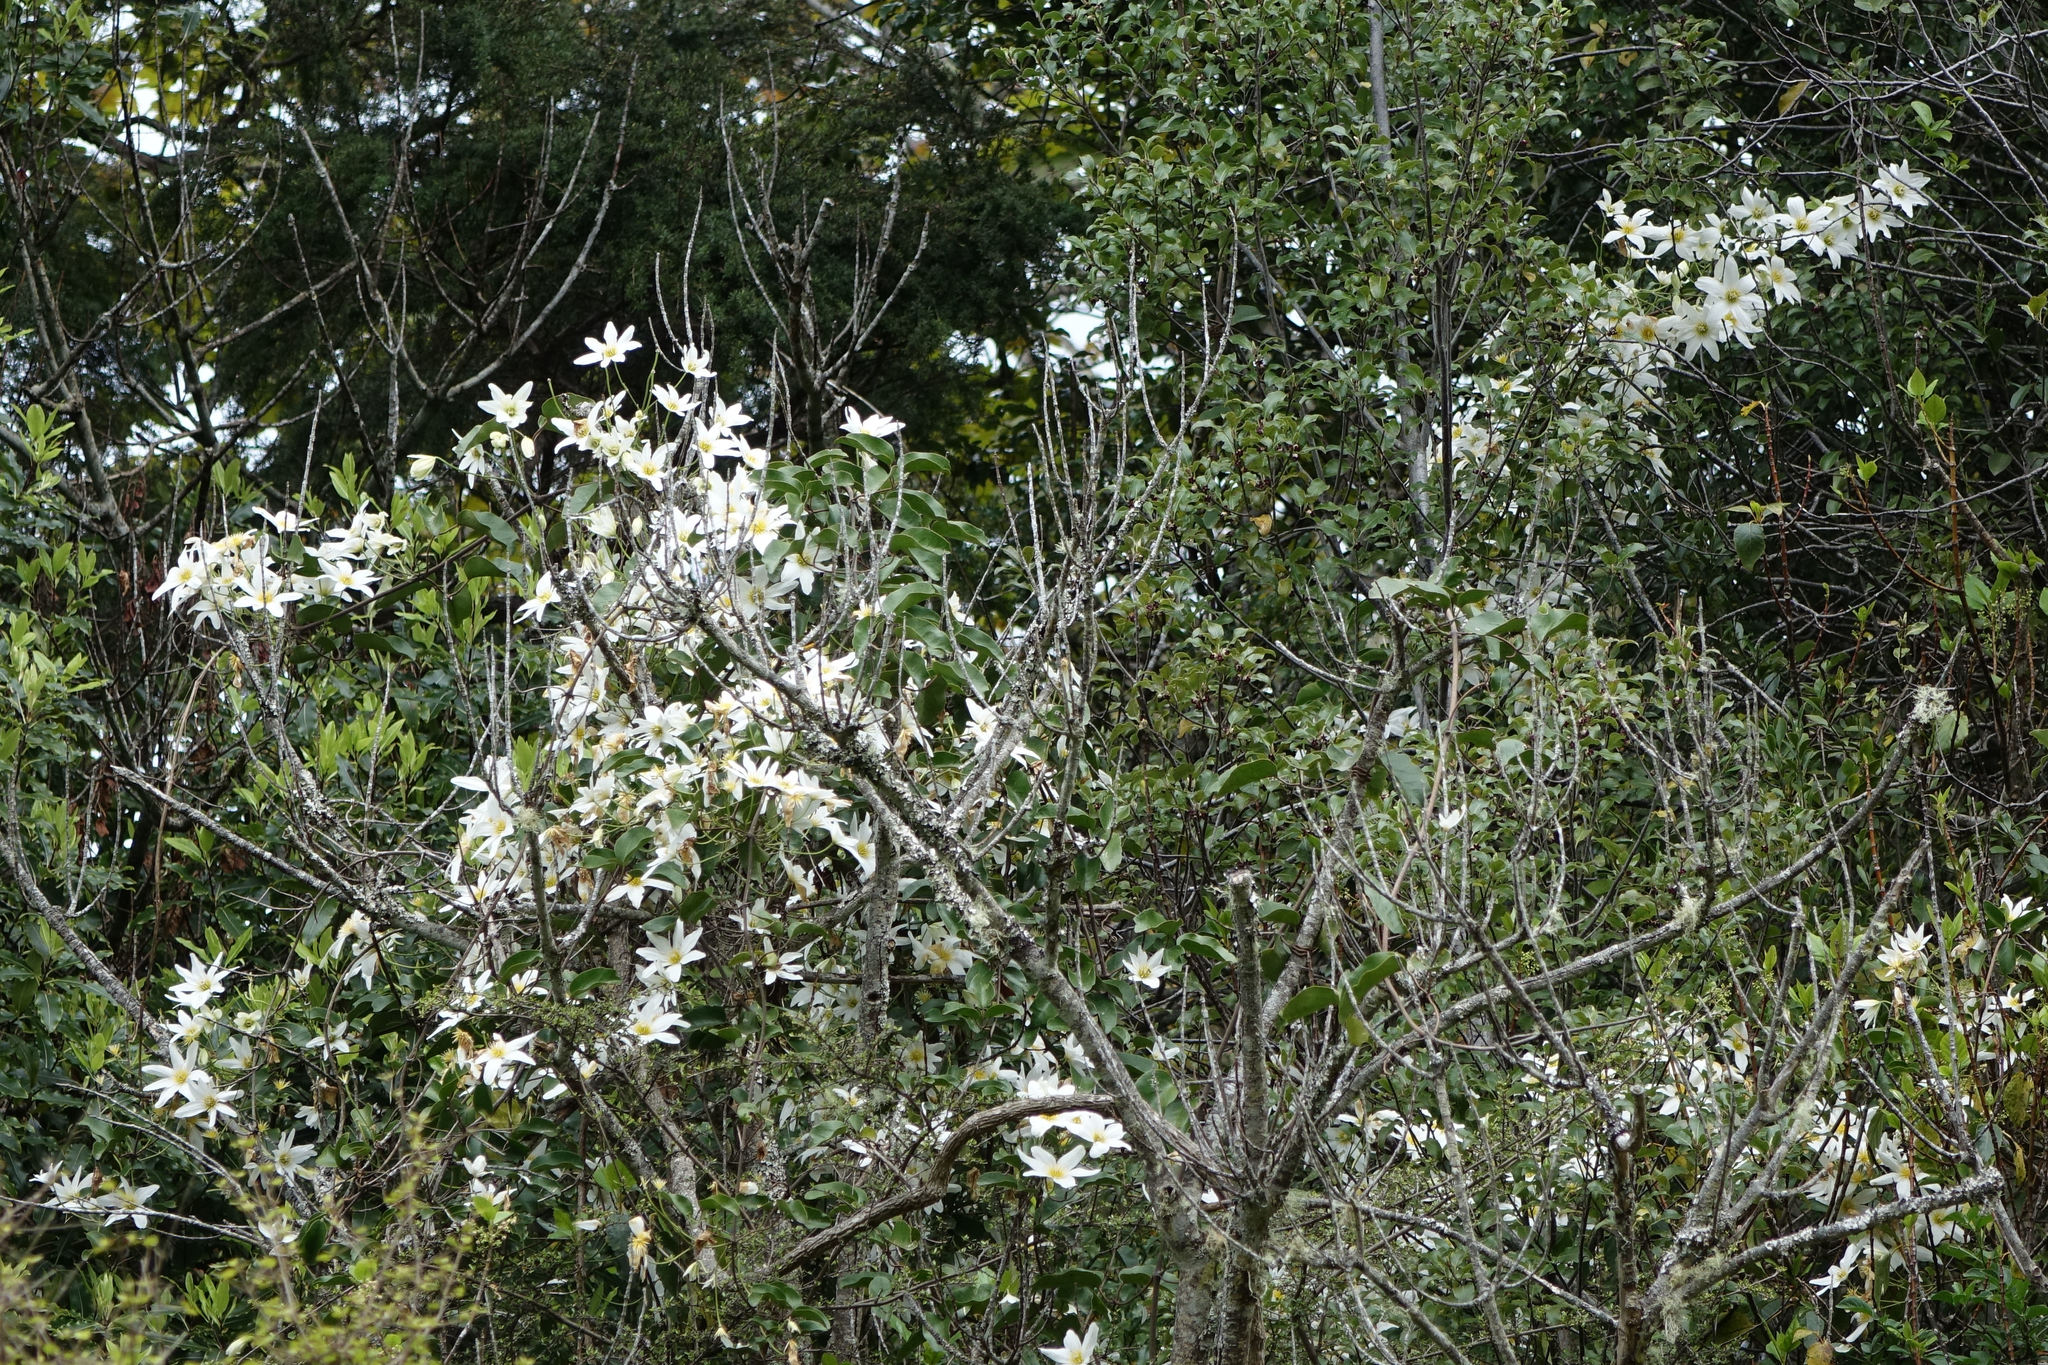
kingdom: Plantae
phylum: Tracheophyta
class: Magnoliopsida
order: Ranunculales
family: Ranunculaceae
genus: Clematis
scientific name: Clematis paniculata
